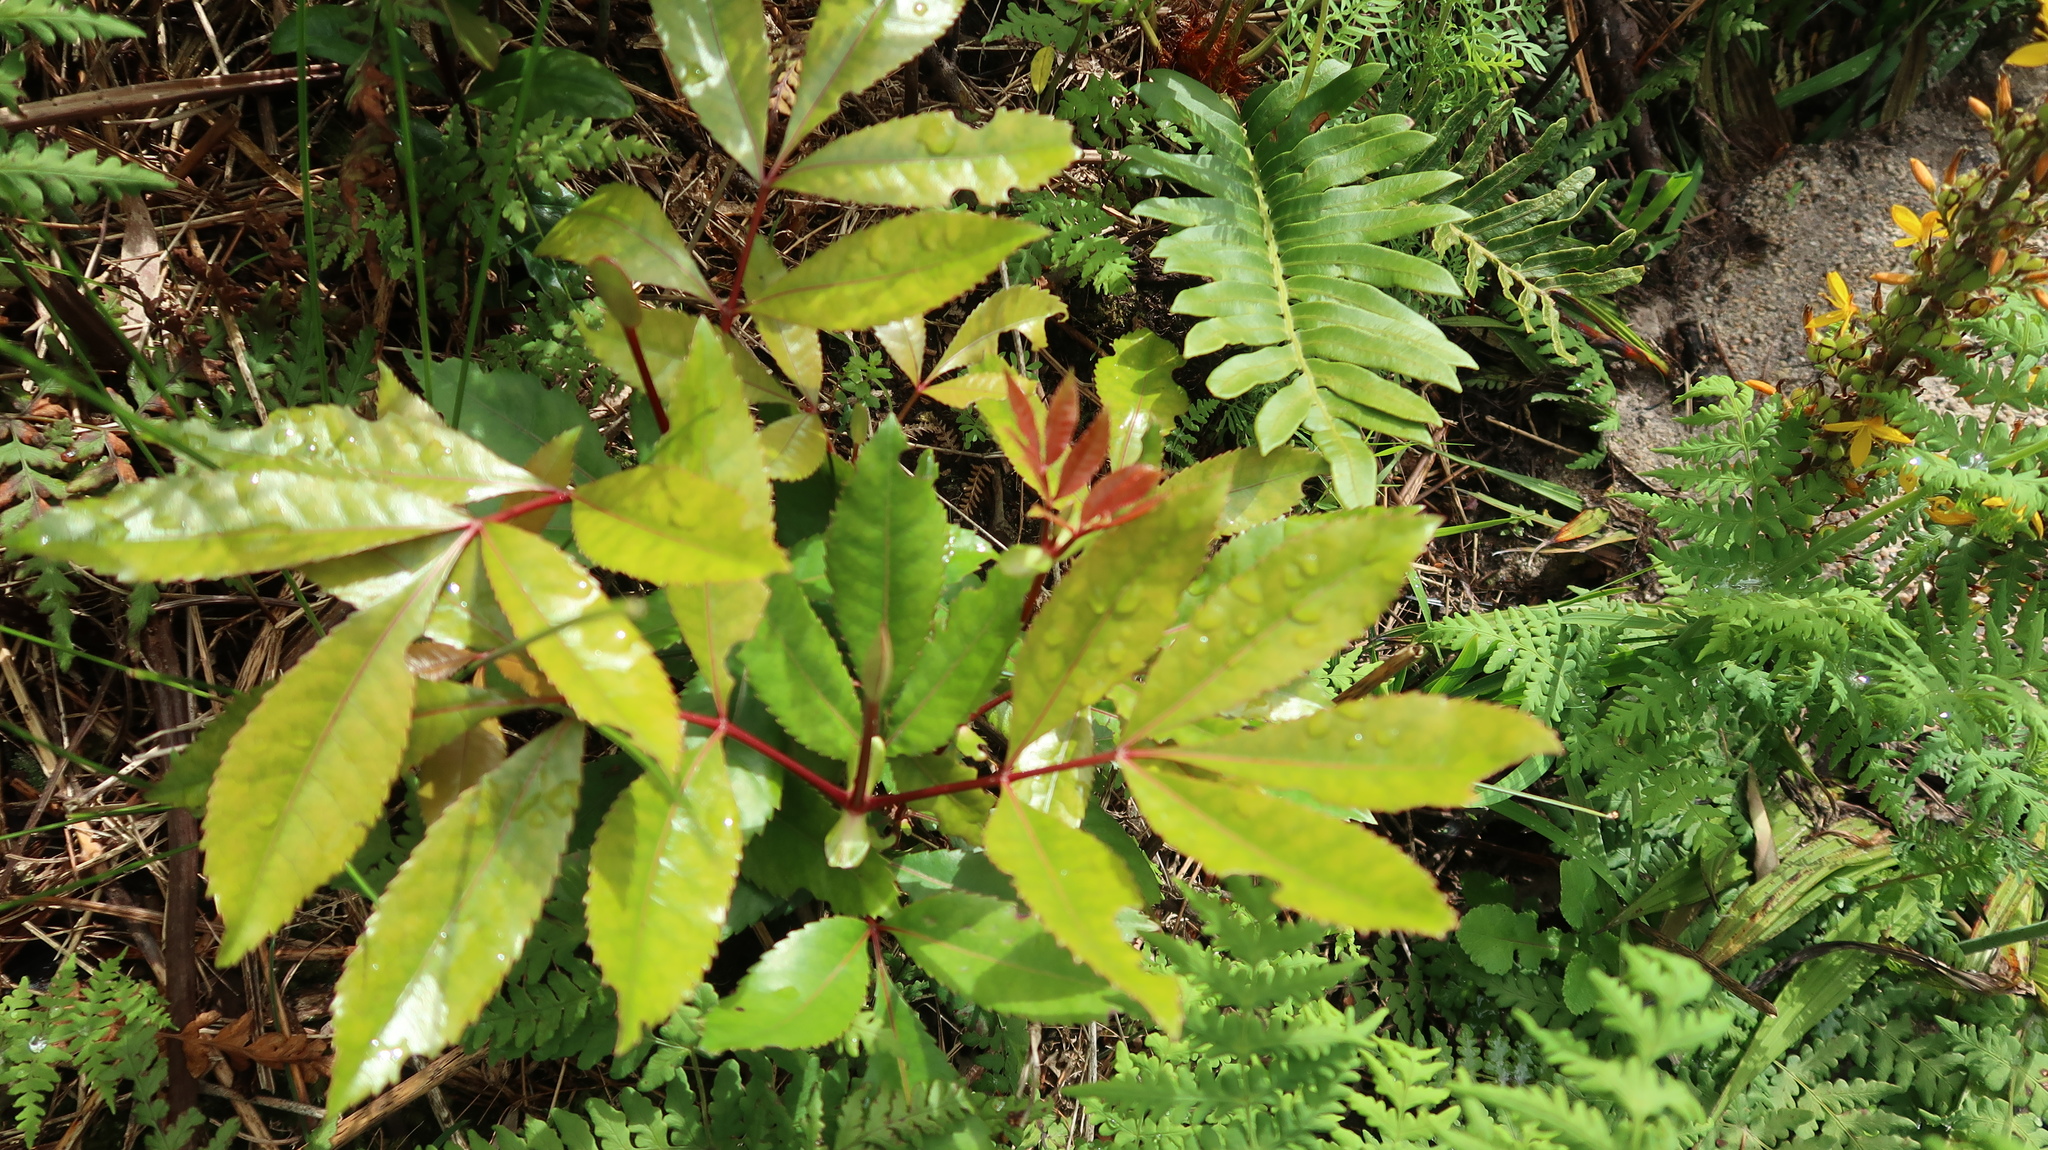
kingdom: Plantae
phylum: Tracheophyta
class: Magnoliopsida
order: Oxalidales
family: Cunoniaceae
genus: Cunonia
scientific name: Cunonia capensis
